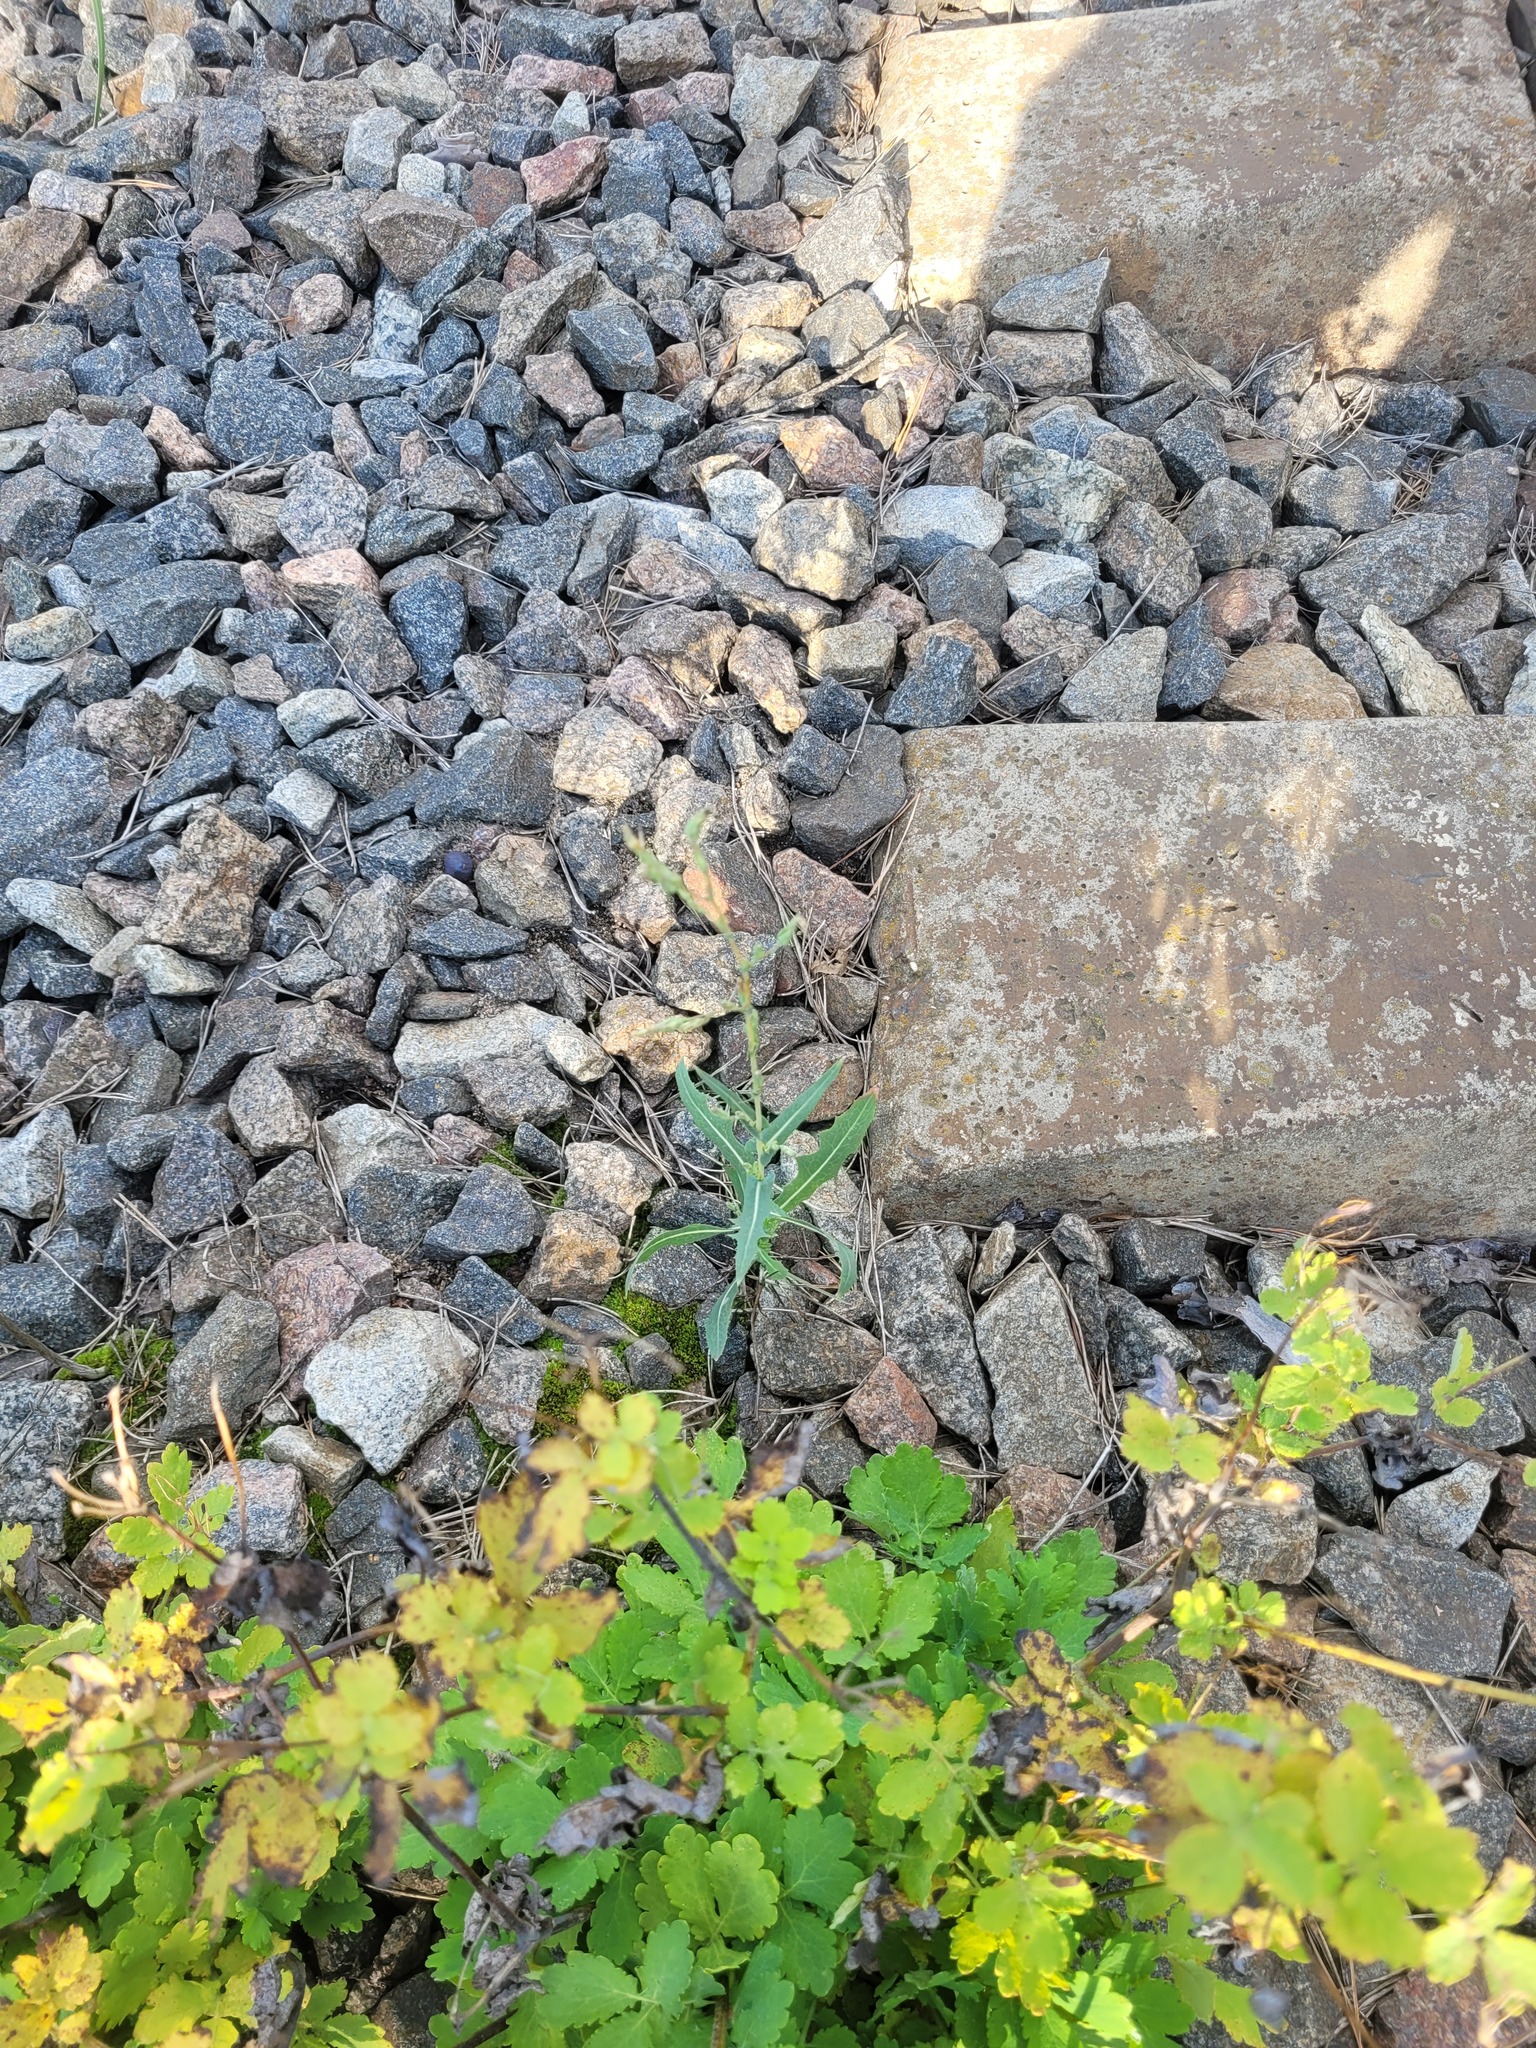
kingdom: Plantae
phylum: Tracheophyta
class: Magnoliopsida
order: Asterales
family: Asteraceae
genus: Lactuca
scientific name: Lactuca serriola
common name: Prickly lettuce
